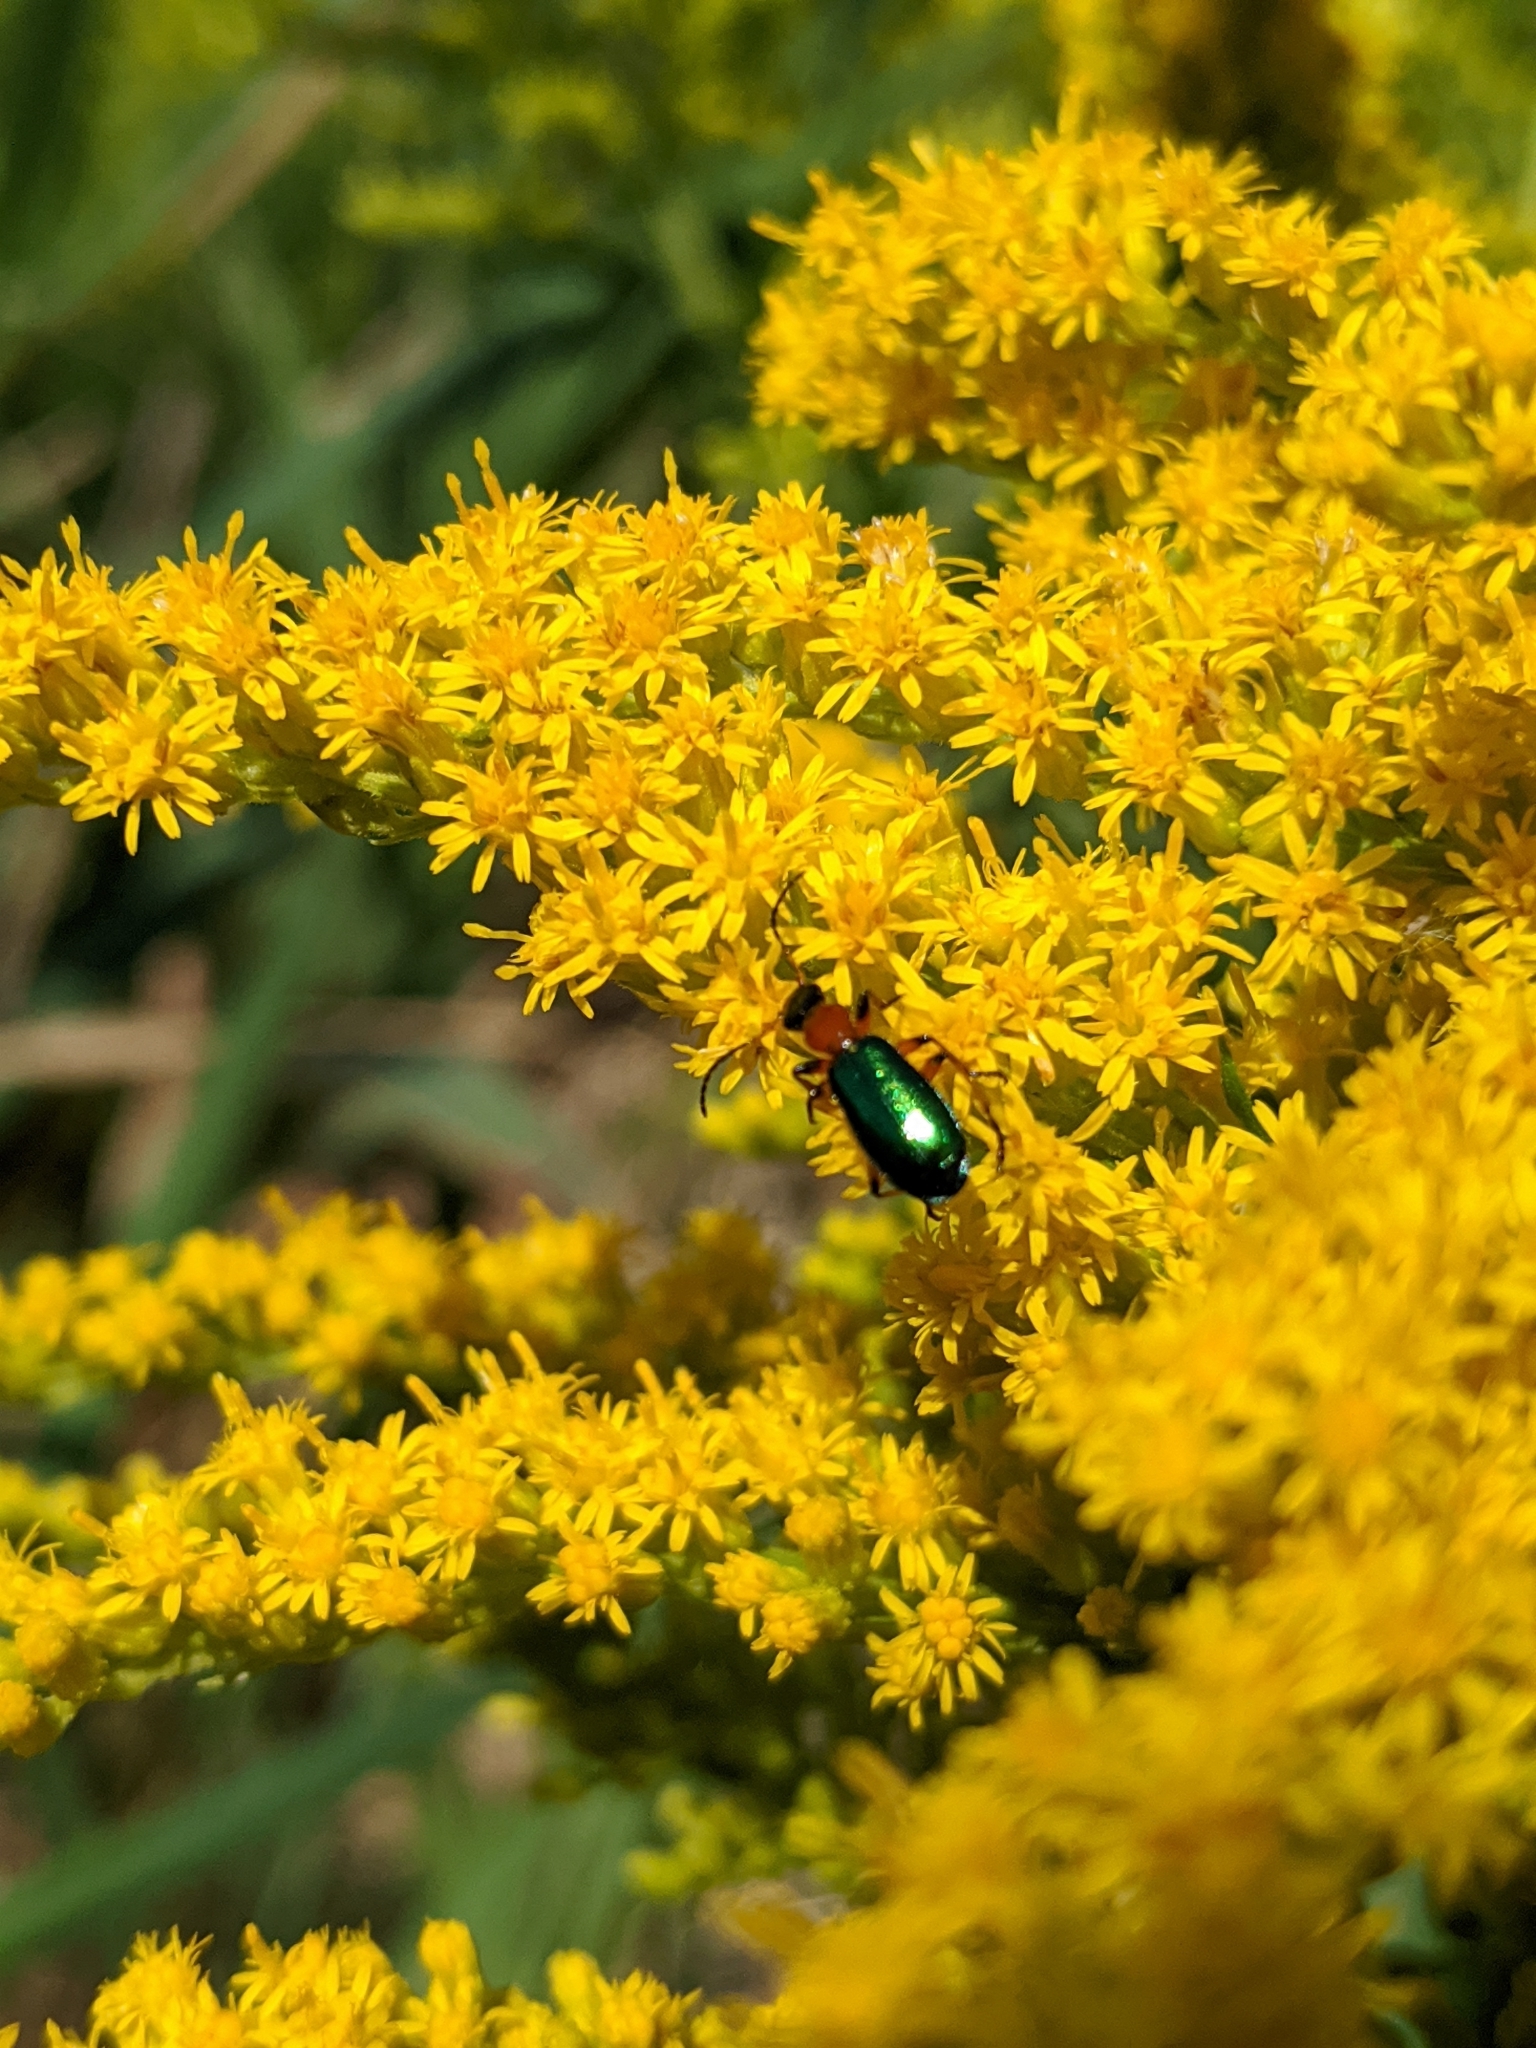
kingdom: Animalia
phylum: Arthropoda
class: Insecta
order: Coleoptera
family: Carabidae
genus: Calleida
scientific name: Calleida punctata
